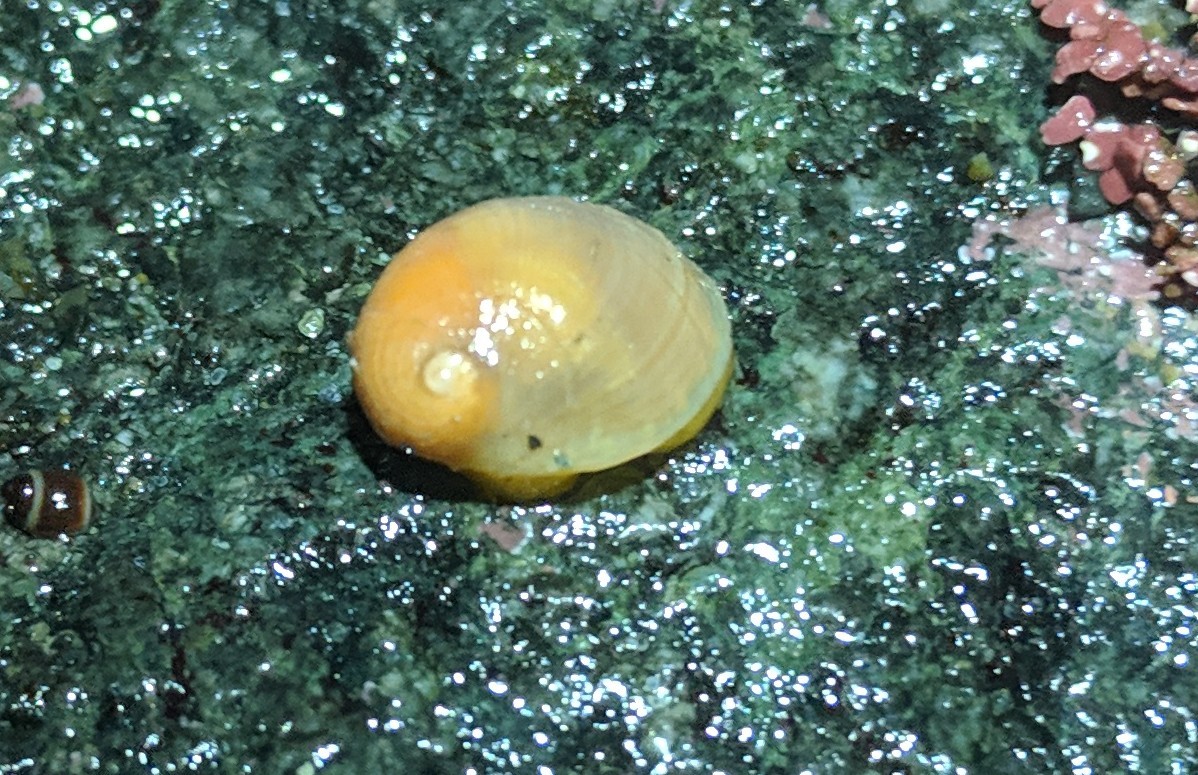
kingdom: Animalia
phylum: Mollusca
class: Gastropoda
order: Littorinimorpha
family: Velutinidae
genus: Velutina
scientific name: Velutina velutina
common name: Smooth lamellaria
